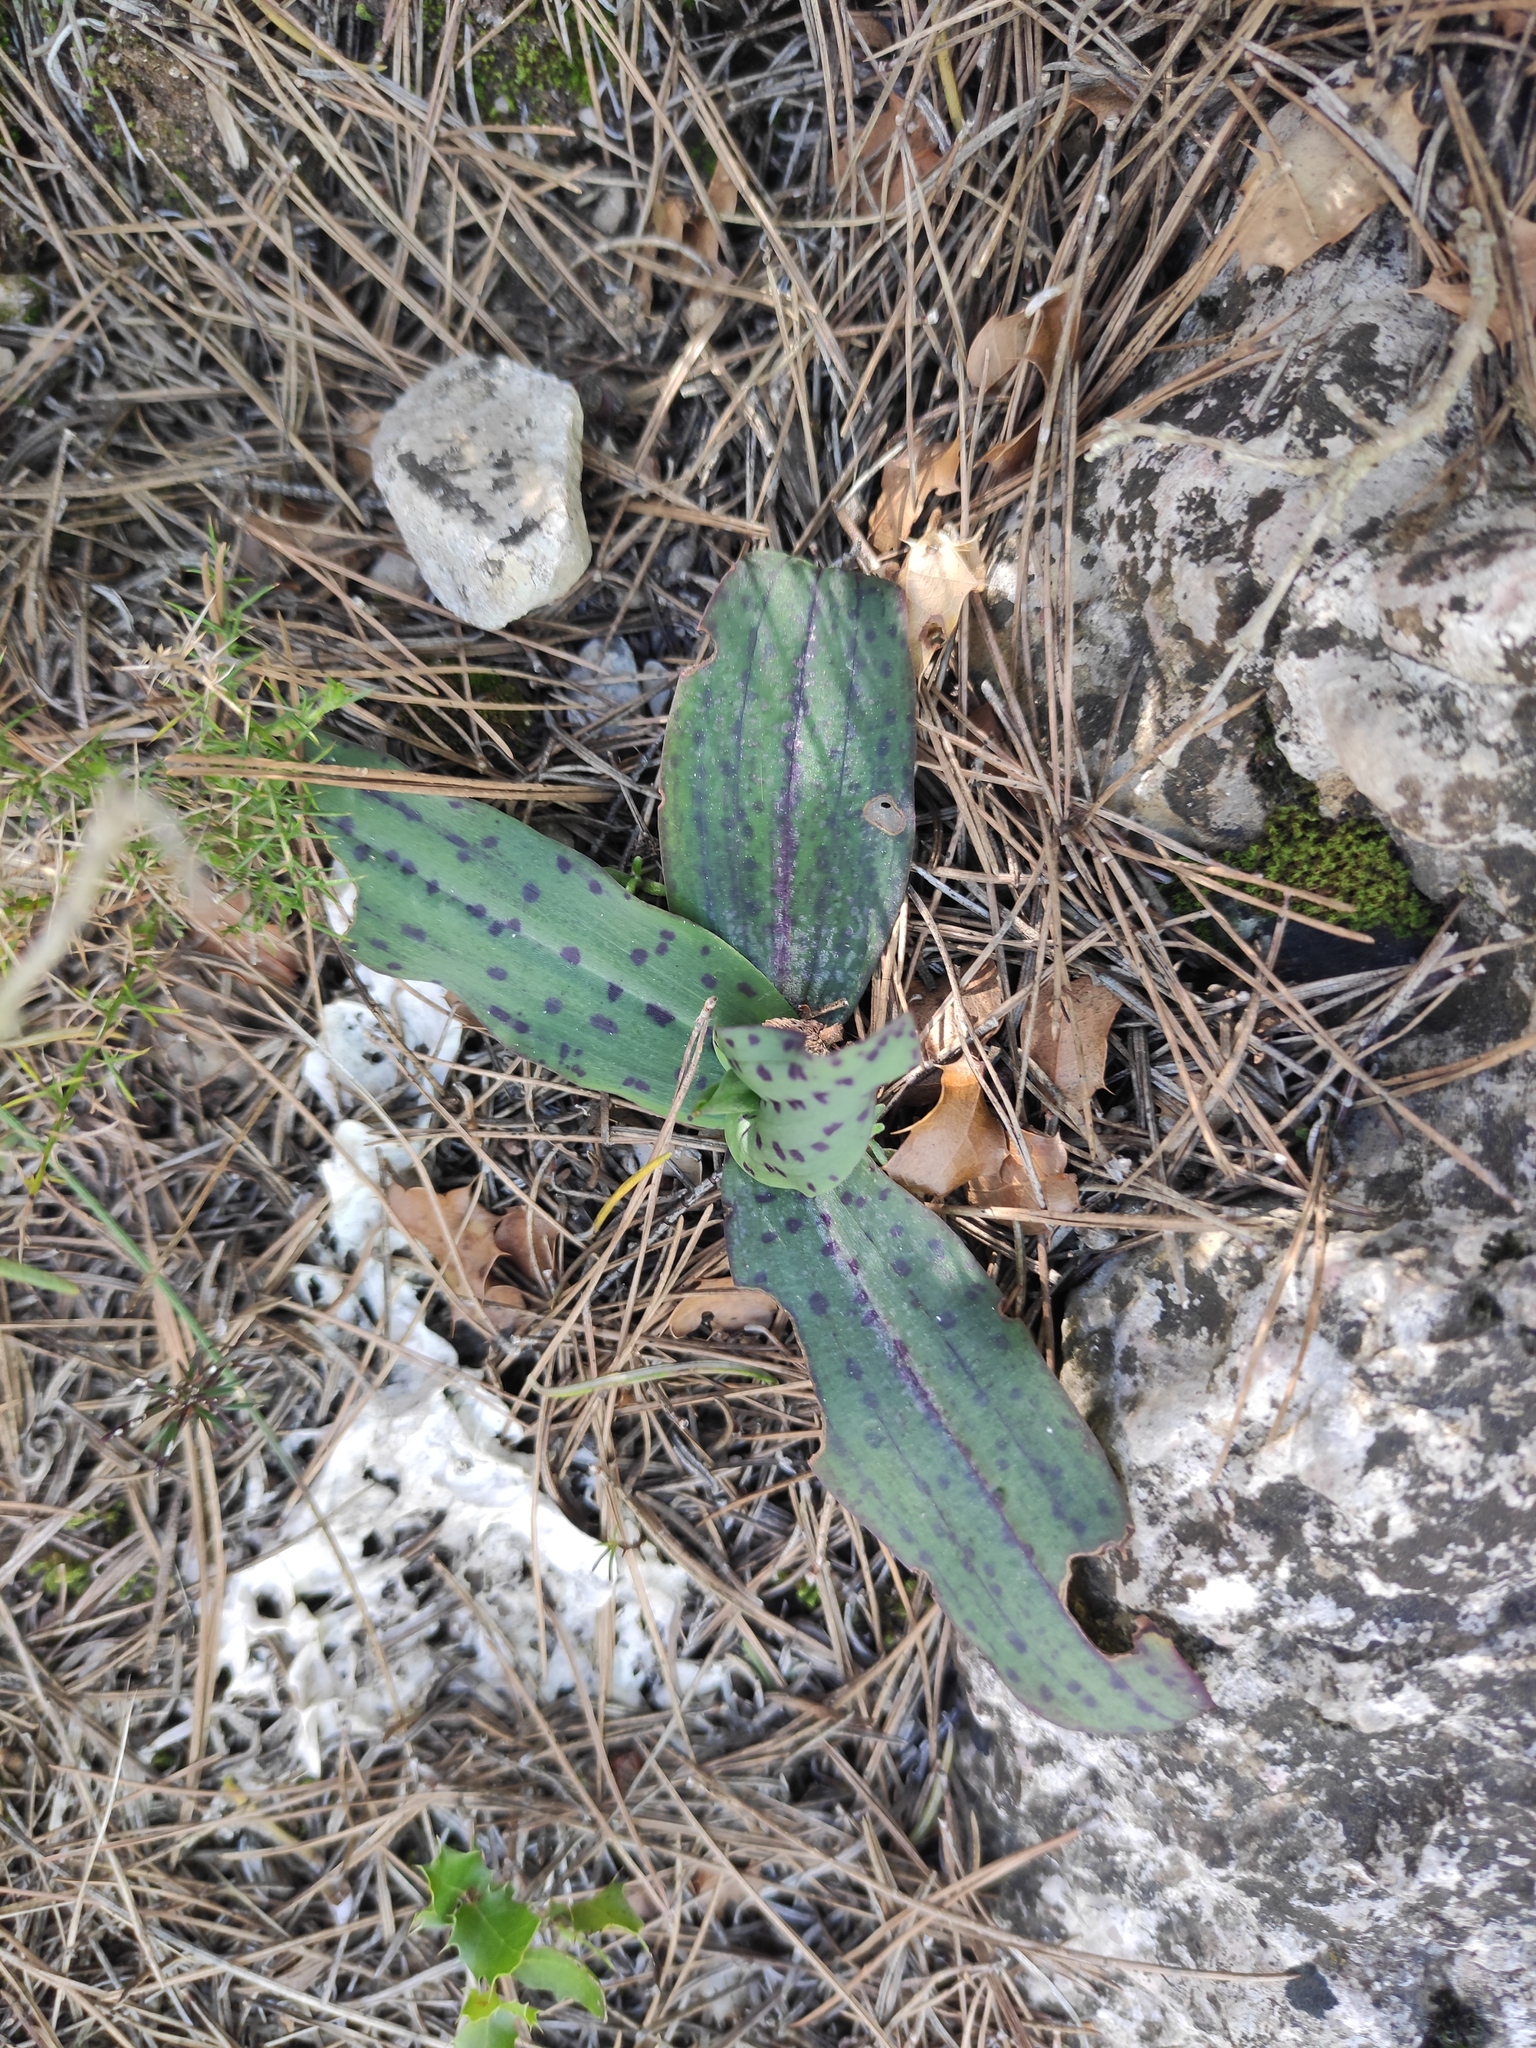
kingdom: Plantae
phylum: Tracheophyta
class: Liliopsida
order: Asparagales
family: Orchidaceae
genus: Neotinea
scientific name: Neotinea maculata
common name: Dense-flowered orchid
